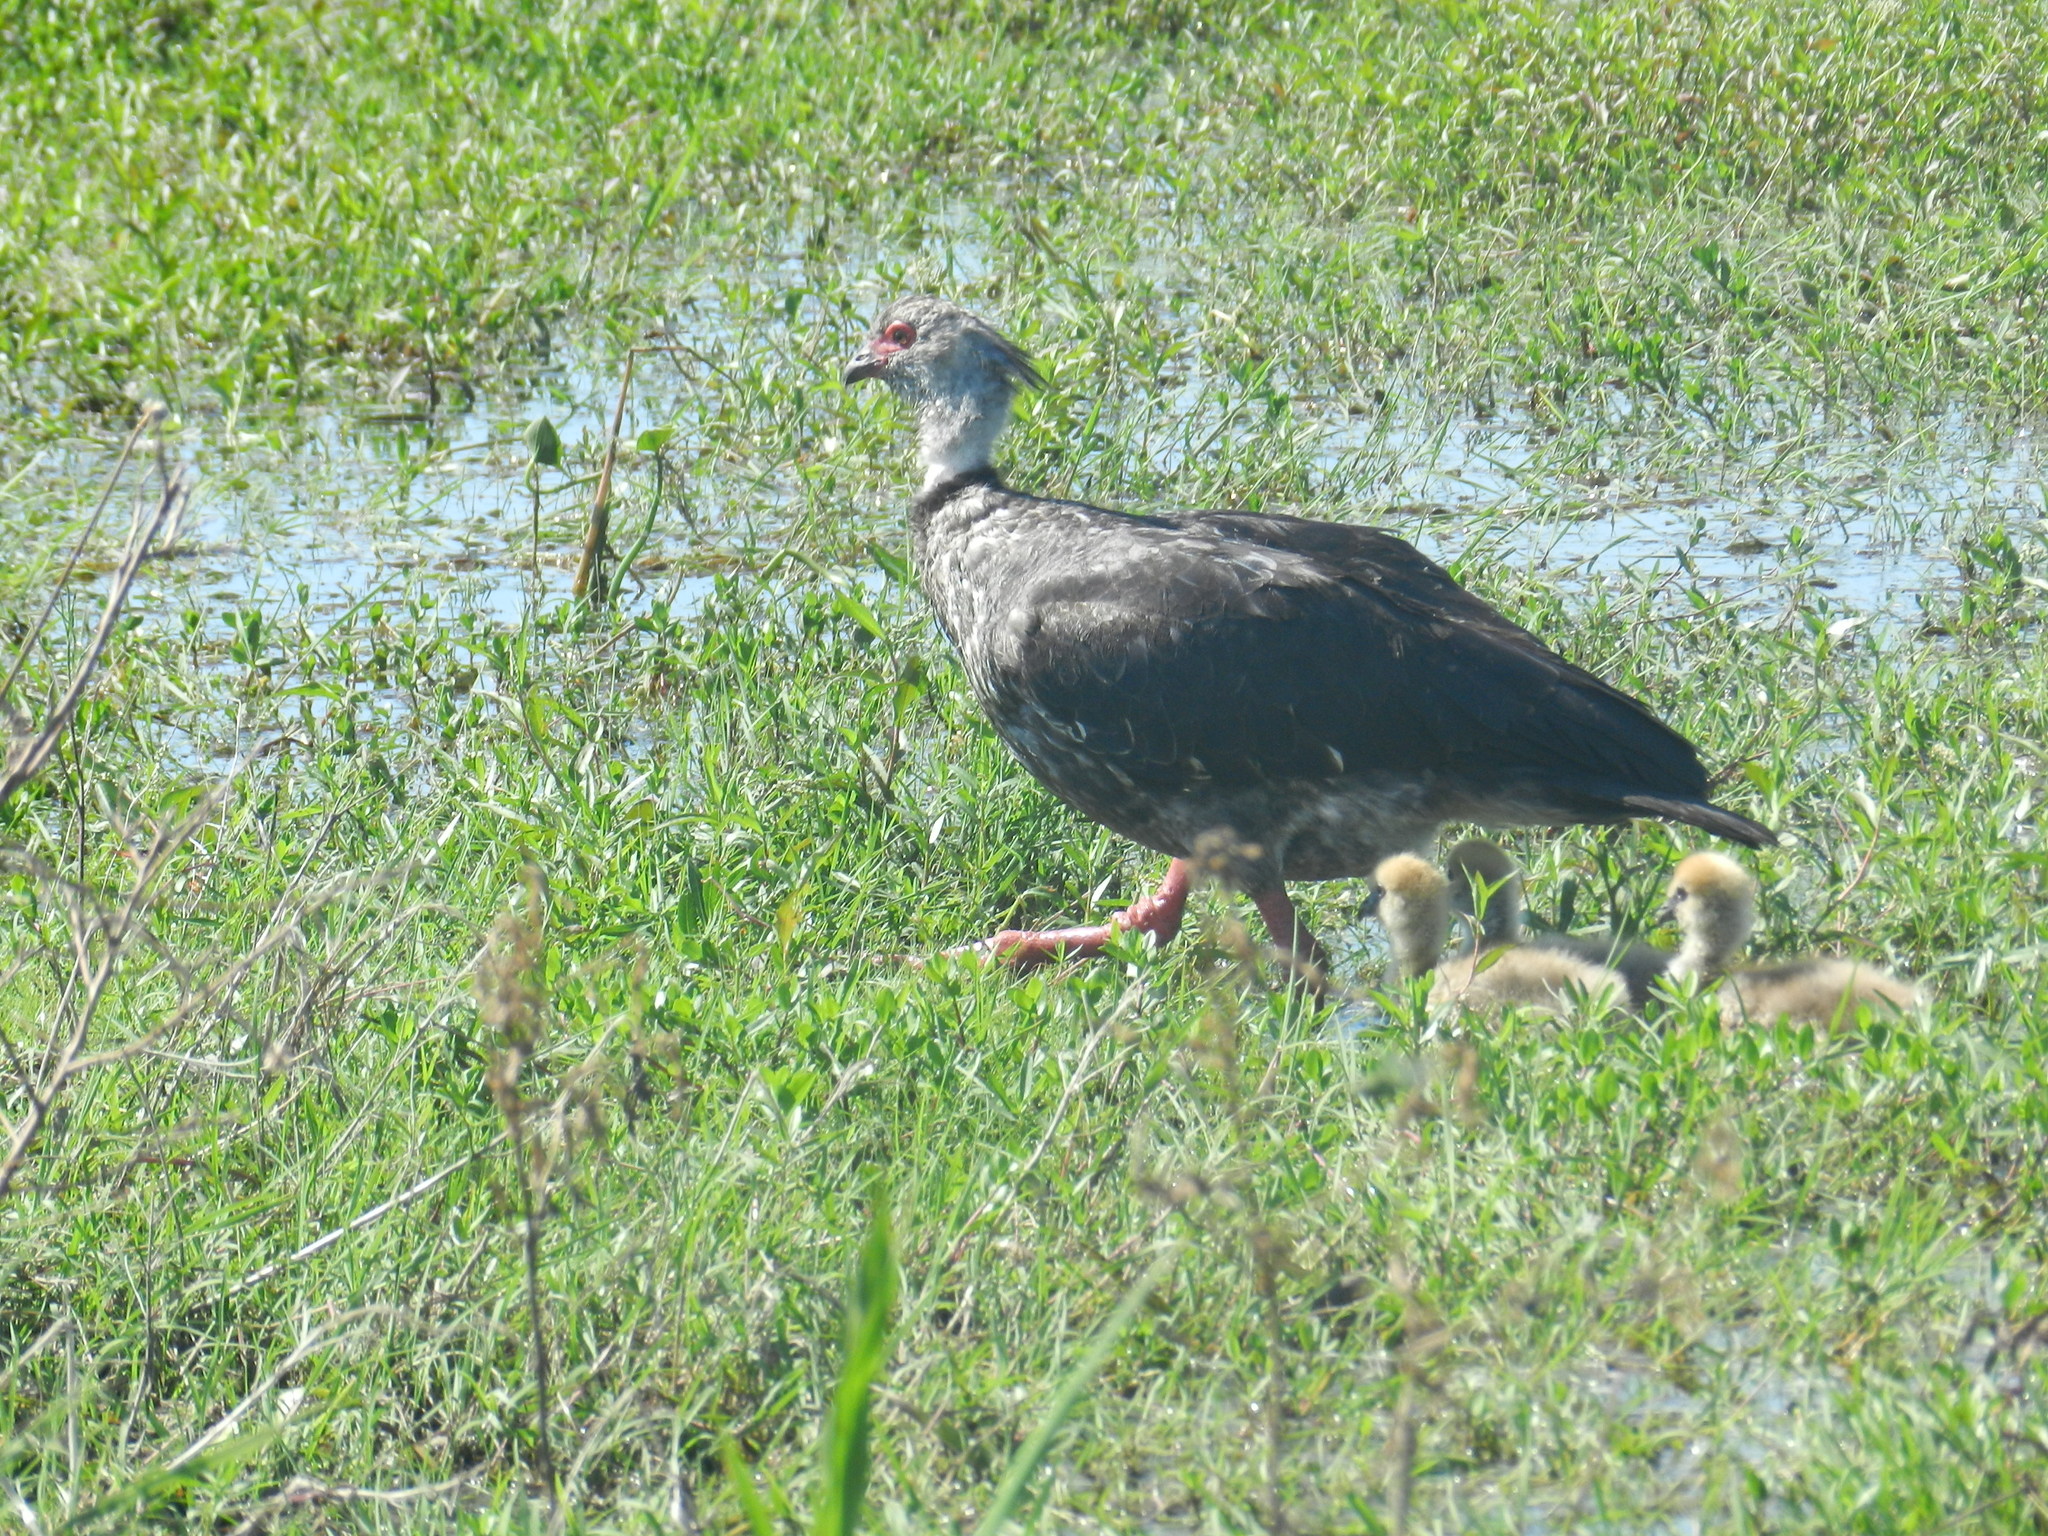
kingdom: Animalia
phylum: Chordata
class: Aves
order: Anseriformes
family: Anhimidae
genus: Chauna
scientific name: Chauna torquata
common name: Southern screamer
